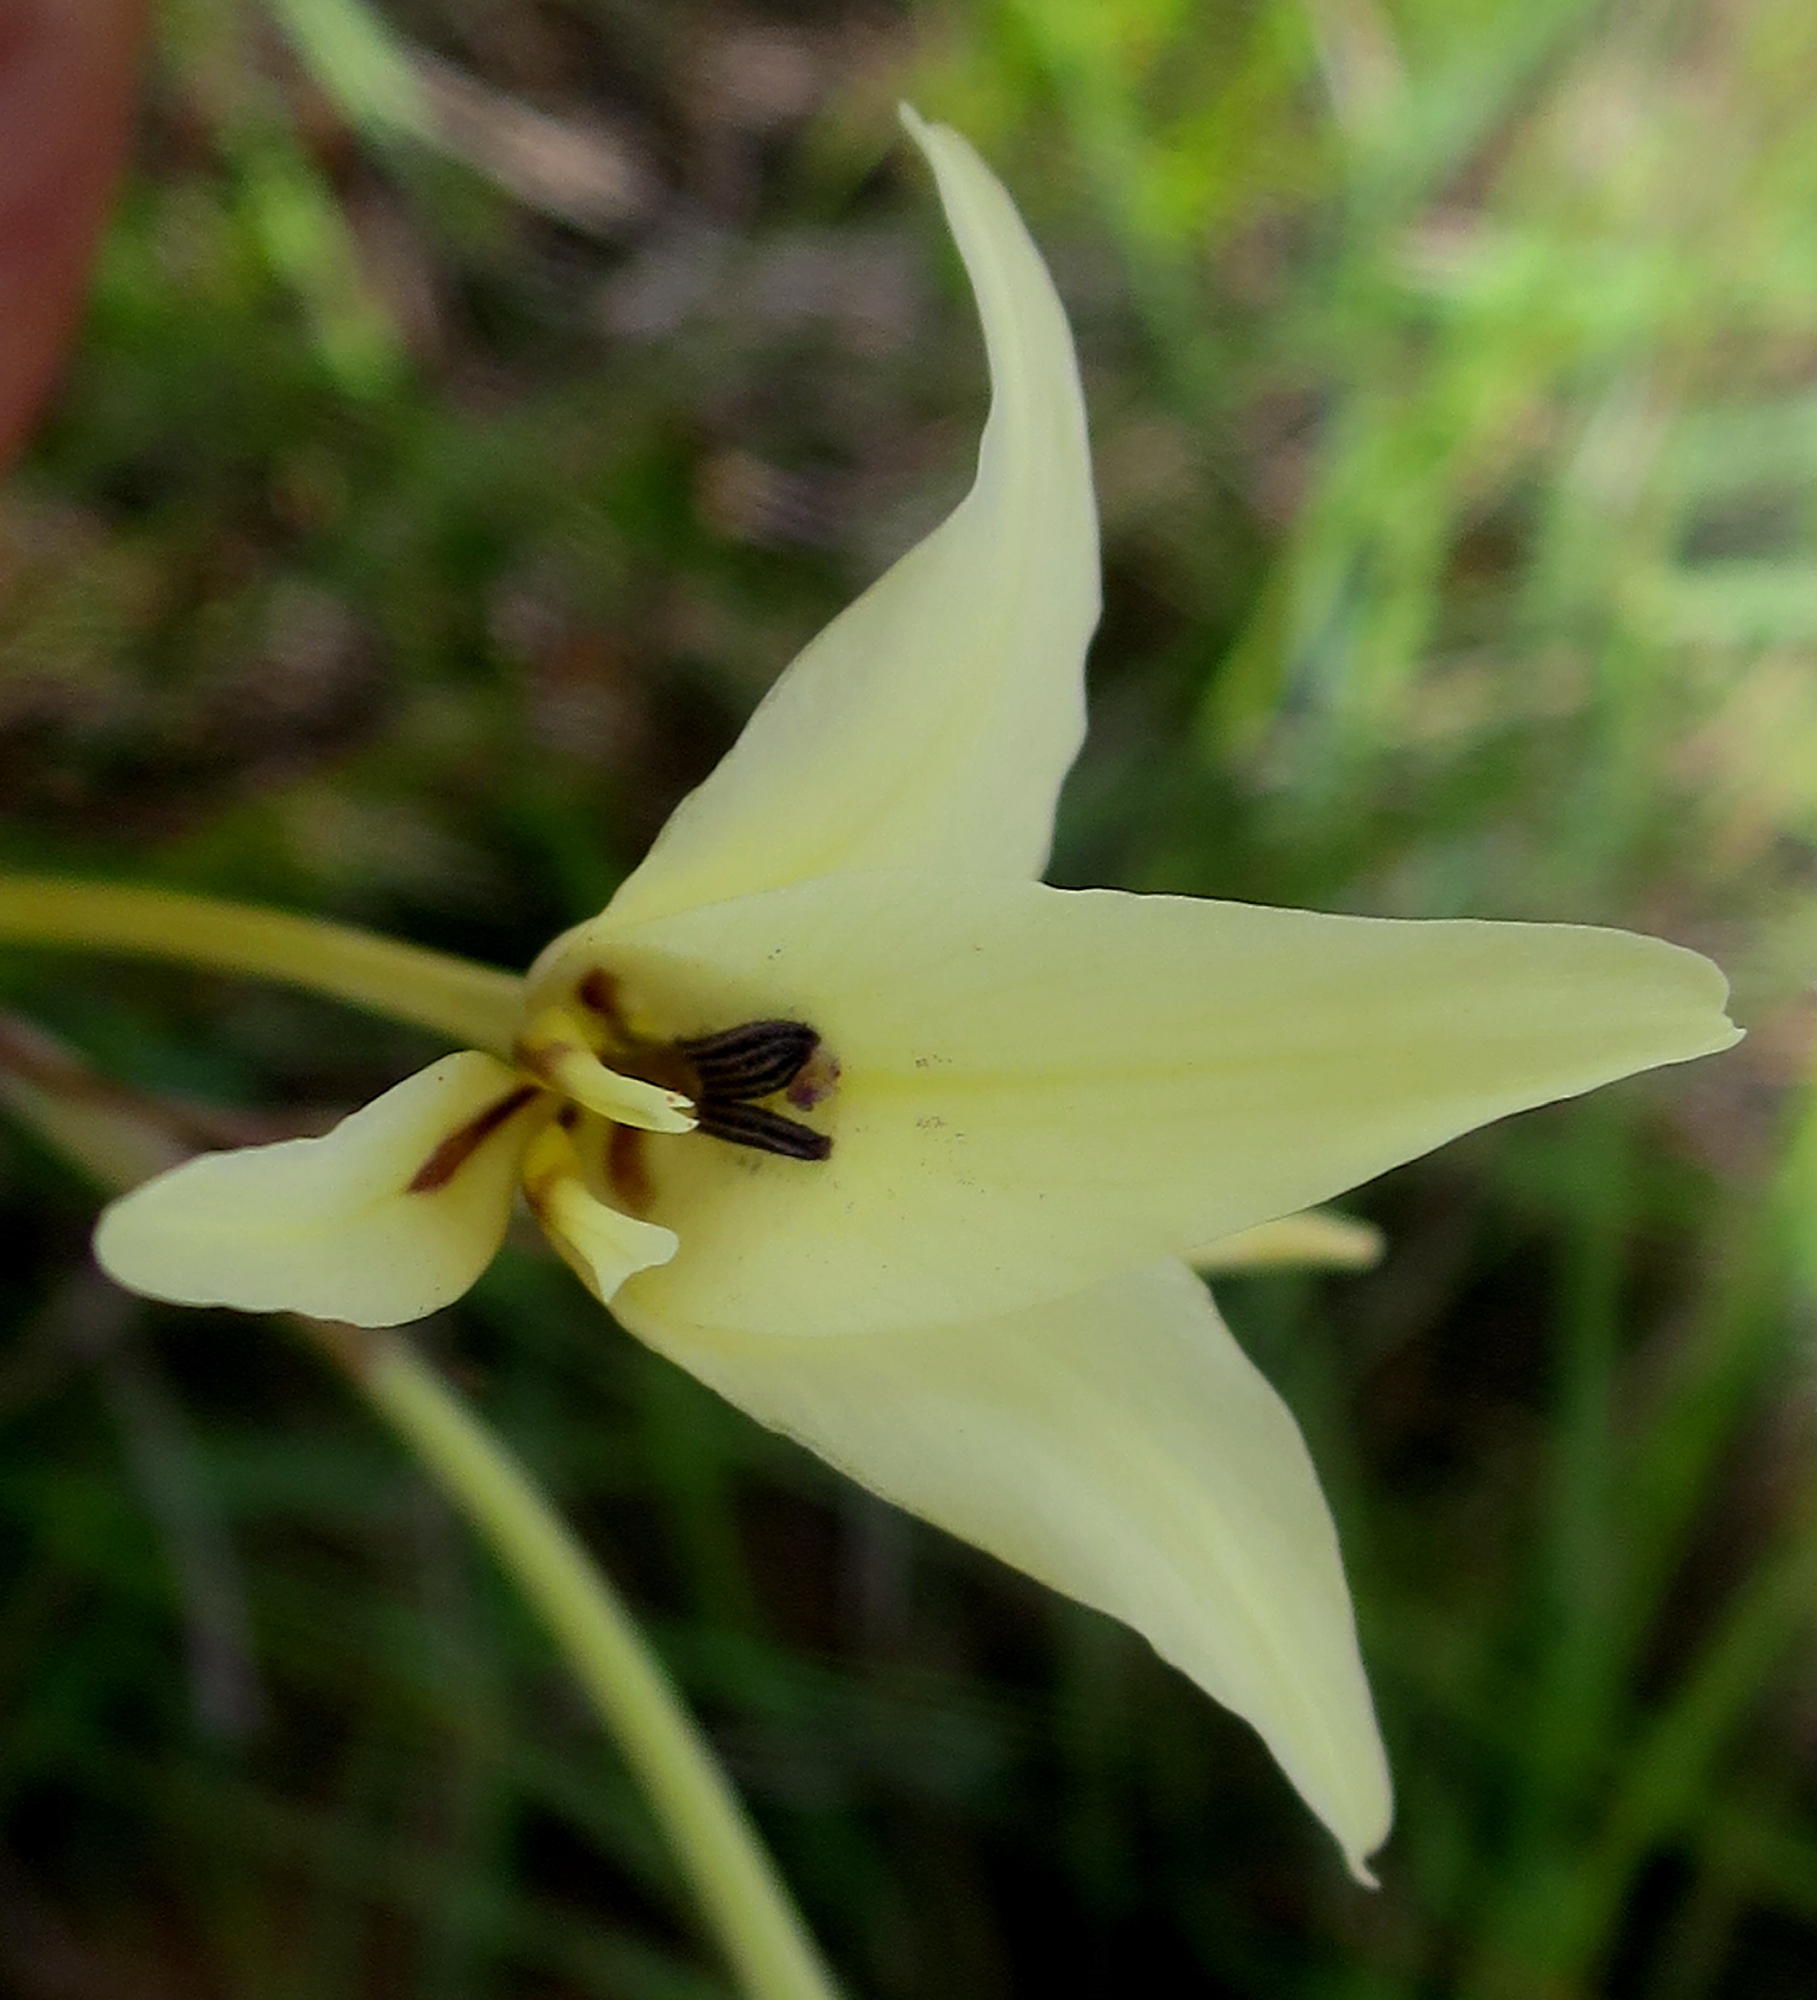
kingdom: Plantae
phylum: Tracheophyta
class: Liliopsida
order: Asparagales
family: Iridaceae
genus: Gladiolus
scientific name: Gladiolus leptosiphon
